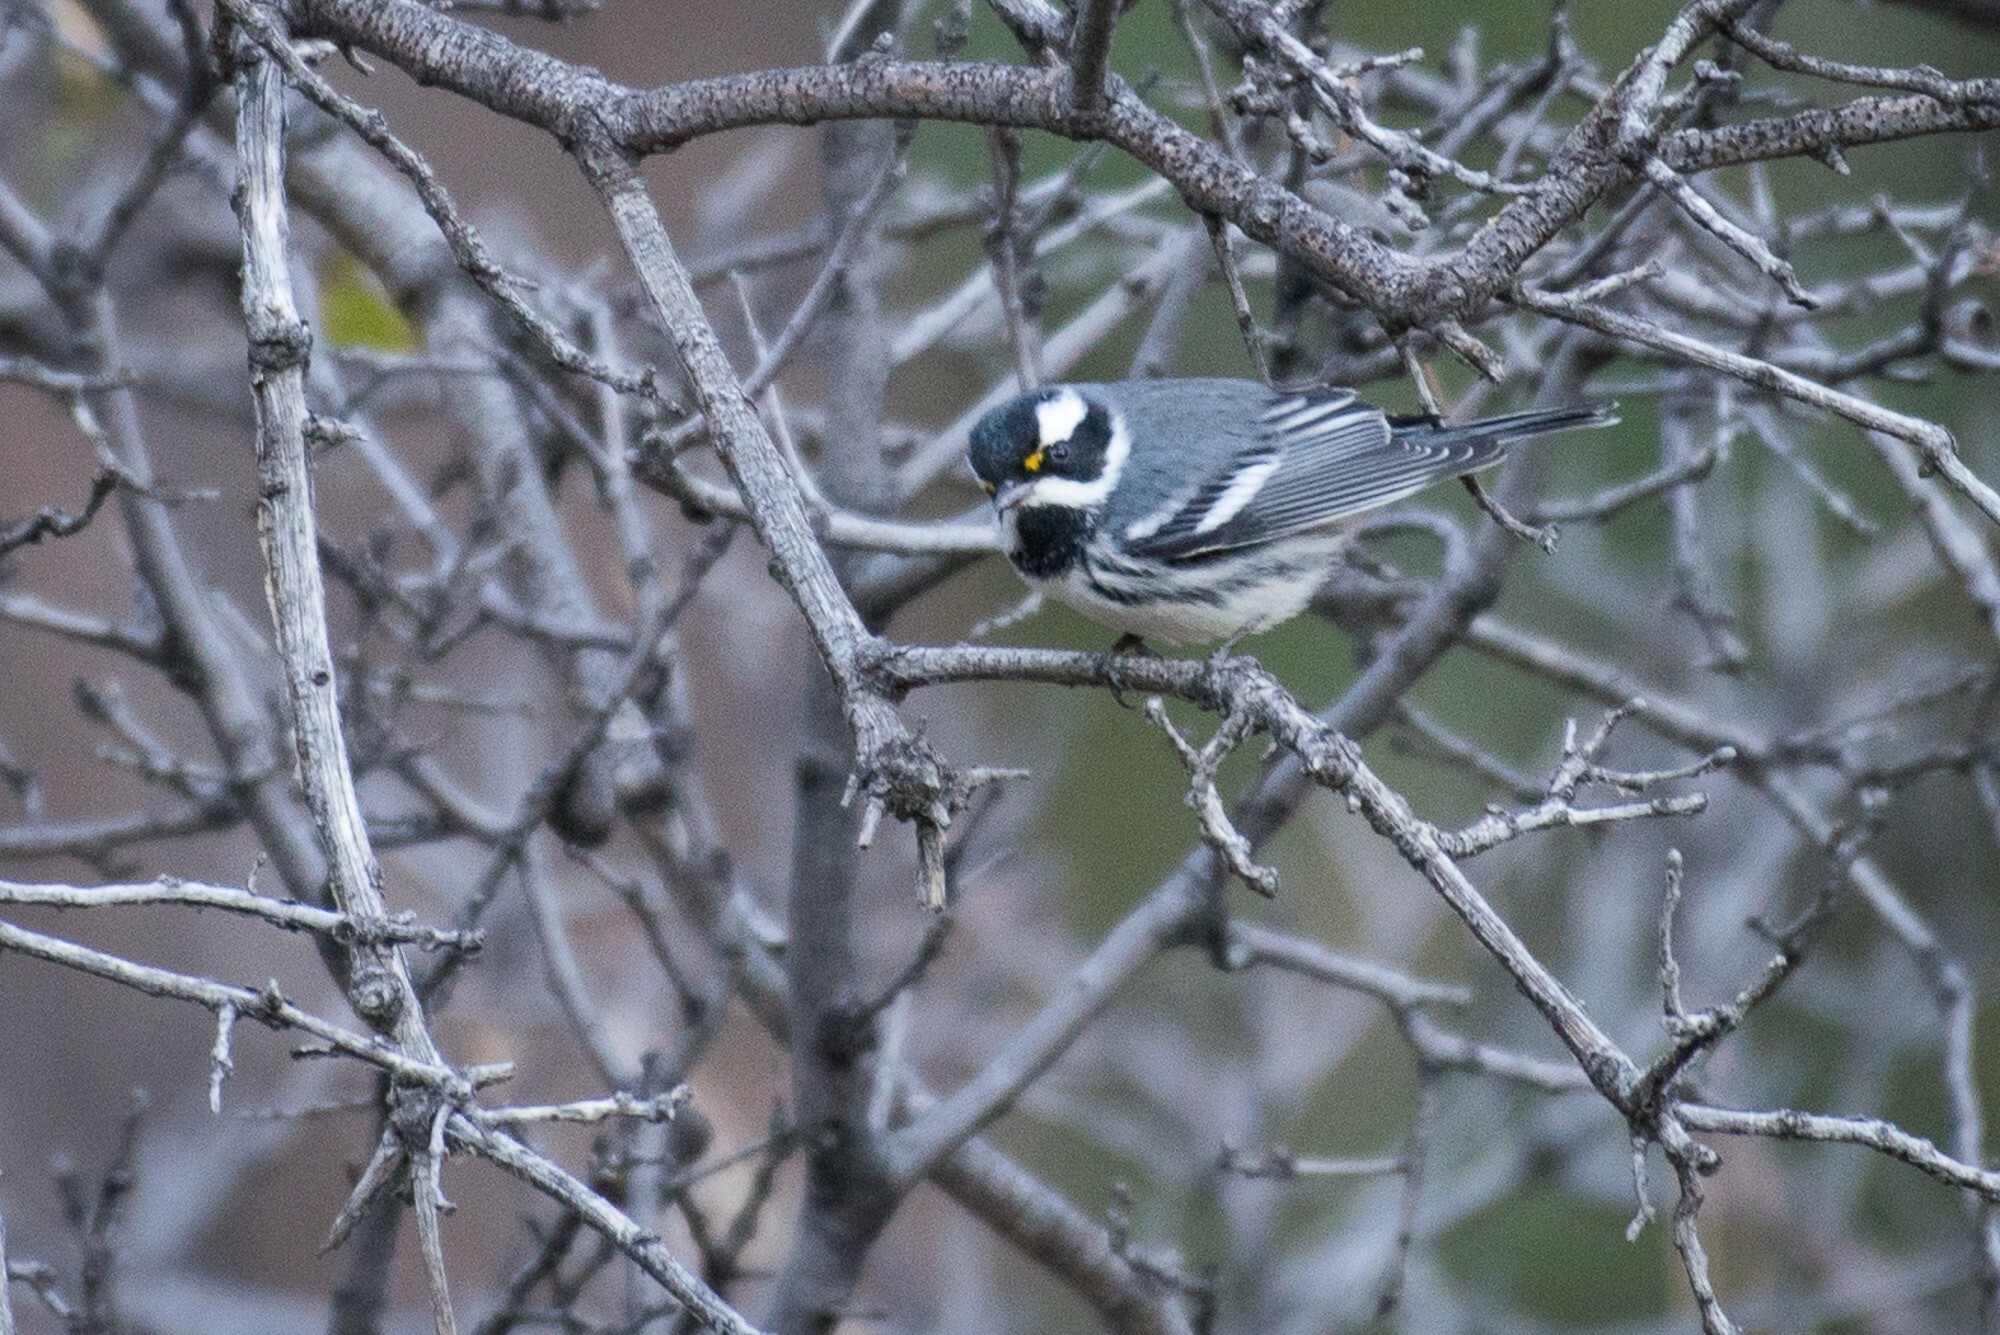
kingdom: Animalia
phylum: Chordata
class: Aves
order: Passeriformes
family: Parulidae
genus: Setophaga
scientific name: Setophaga nigrescens
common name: Black-throated gray warbler
